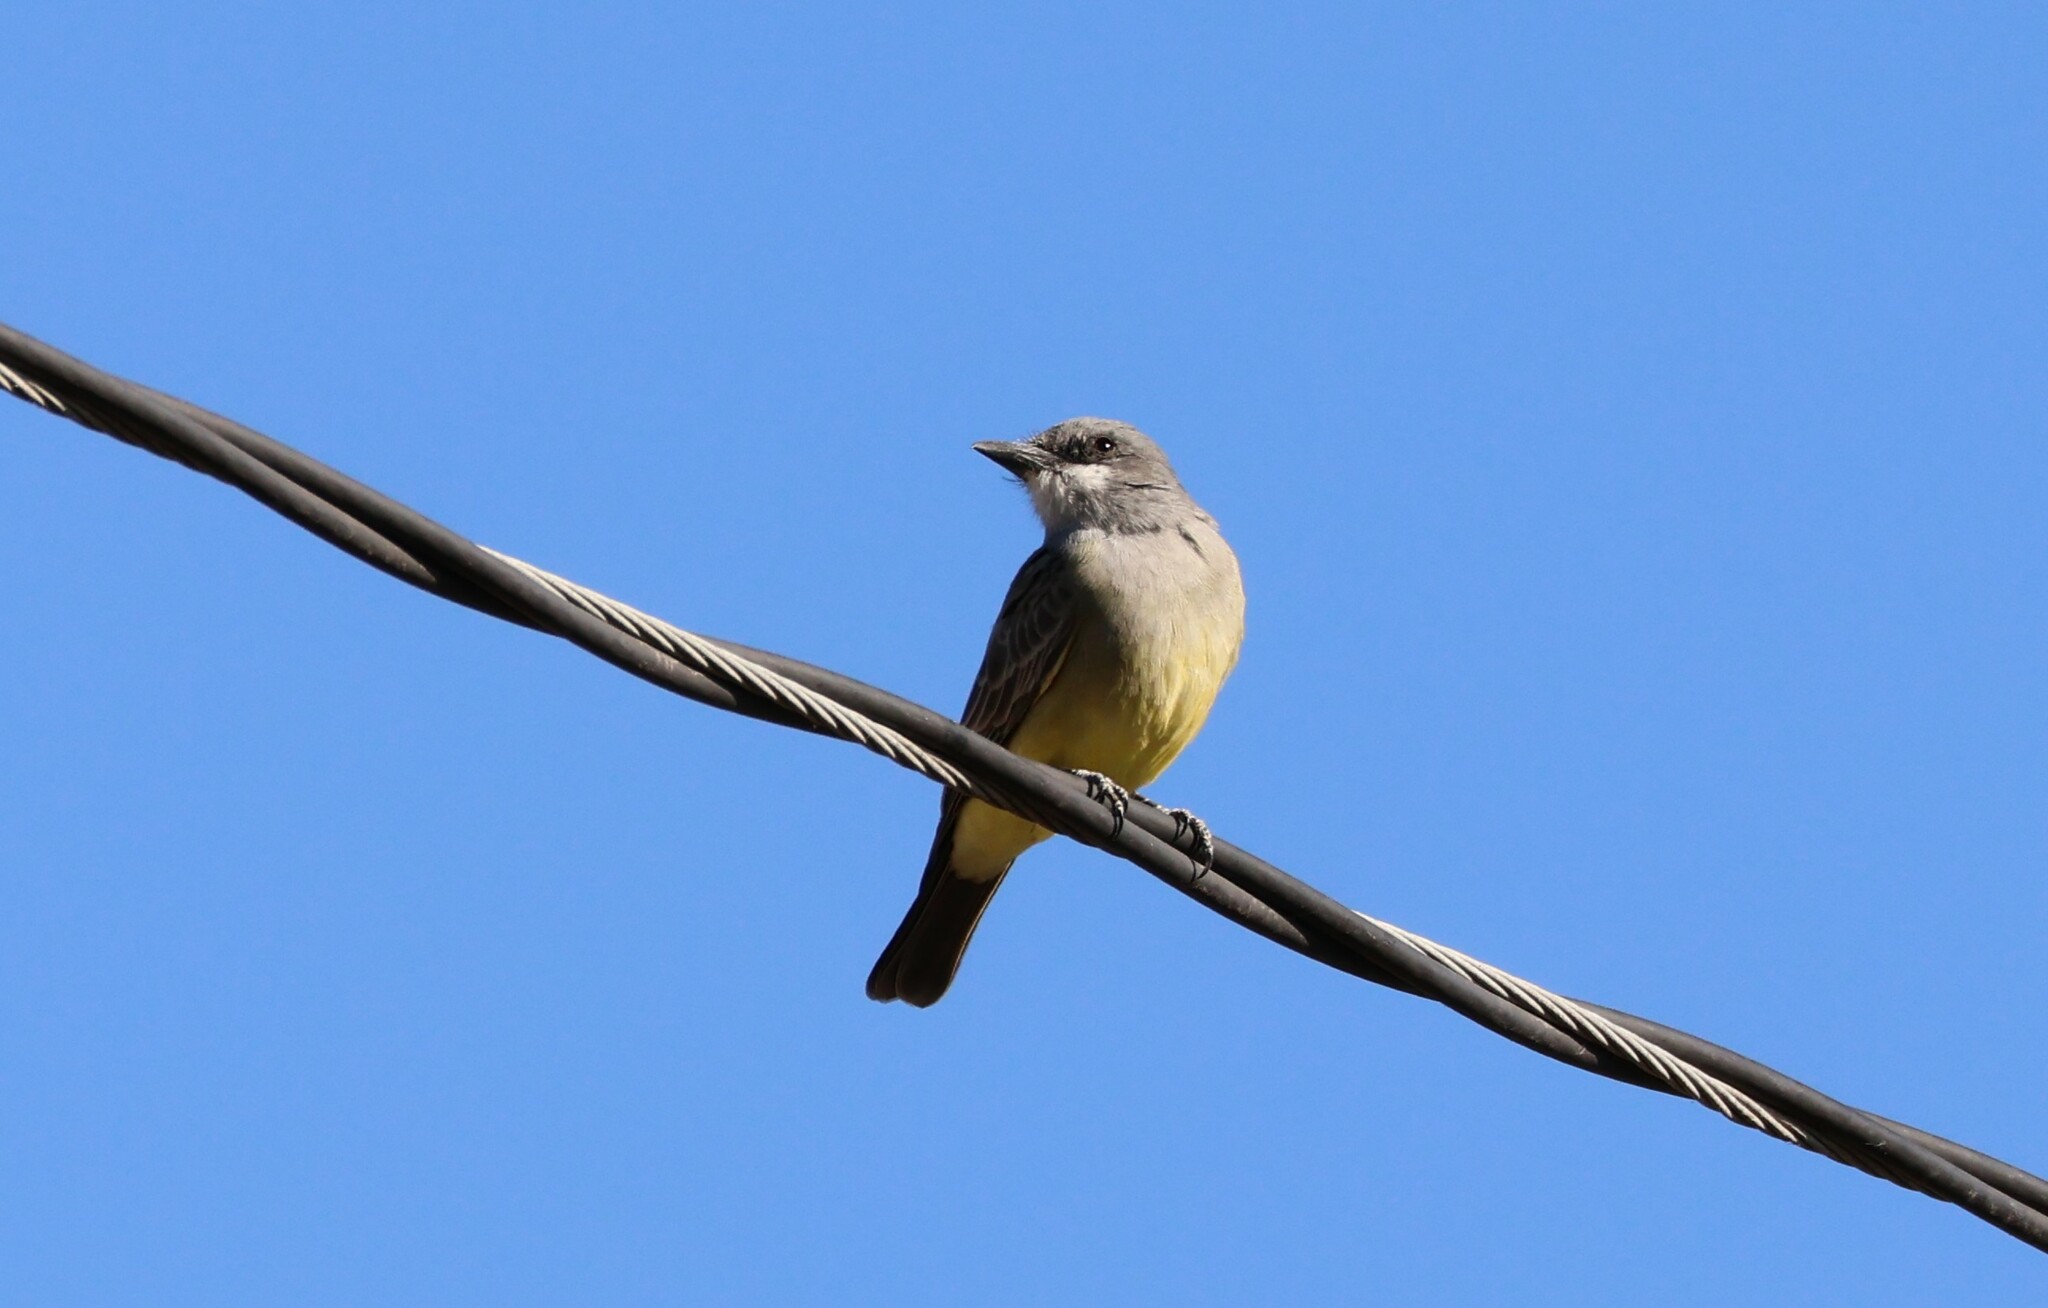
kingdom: Animalia
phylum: Chordata
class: Aves
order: Passeriformes
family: Tyrannidae
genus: Tyrannus
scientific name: Tyrannus vociferans
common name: Cassin's kingbird
